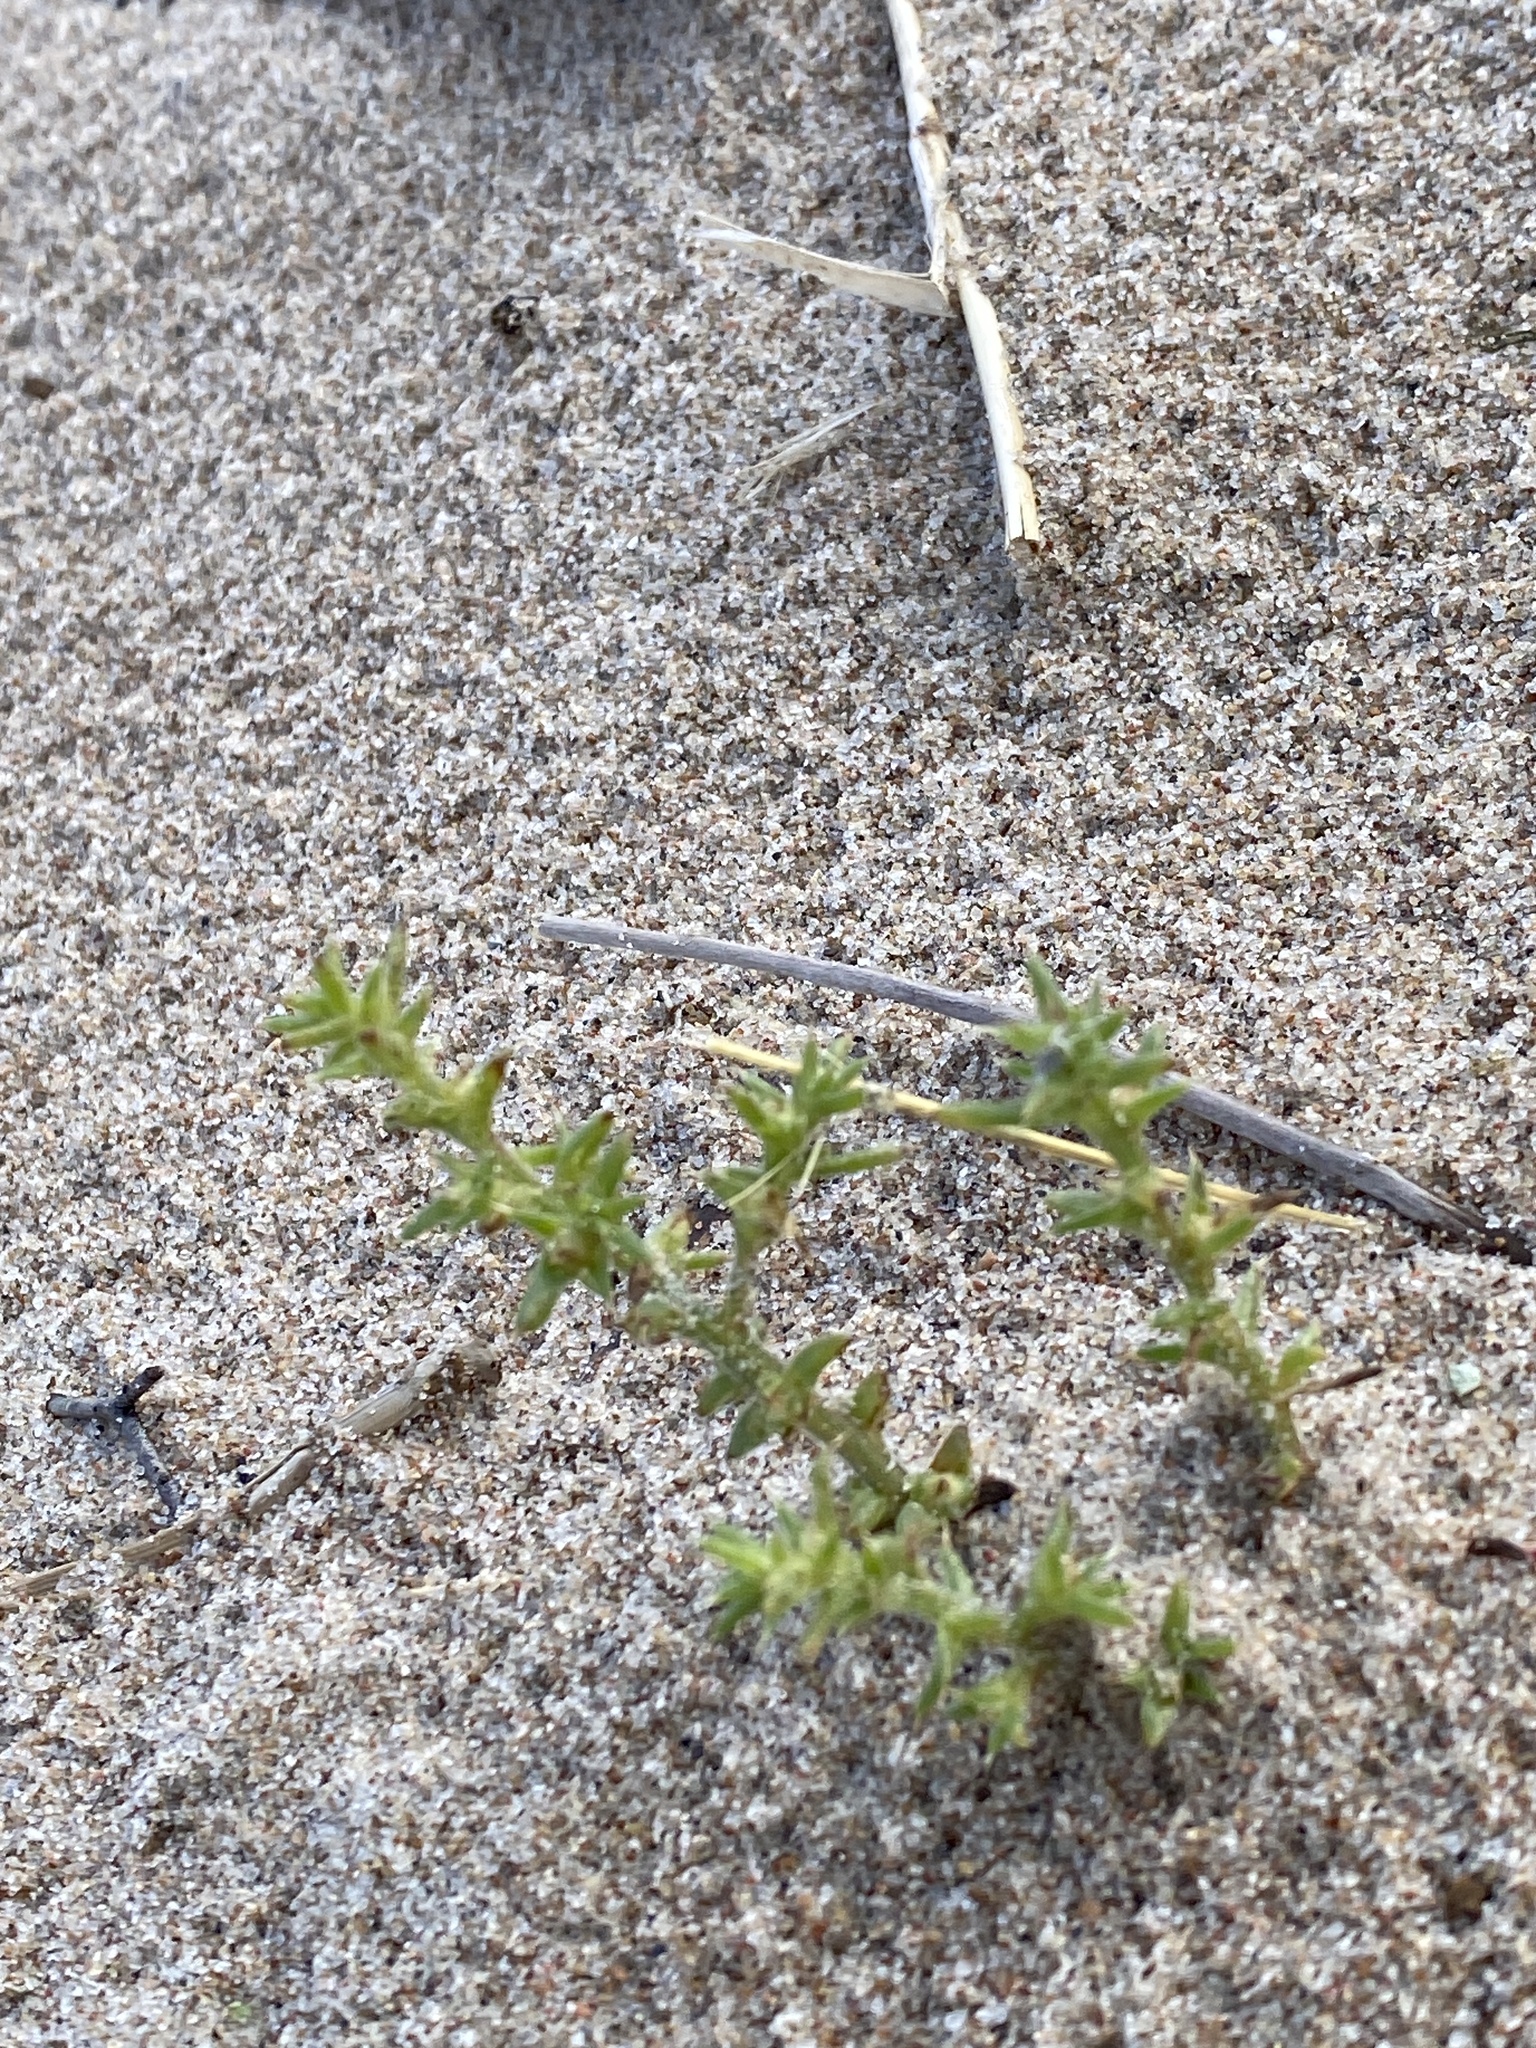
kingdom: Plantae
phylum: Tracheophyta
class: Magnoliopsida
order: Caryophyllales
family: Amaranthaceae
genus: Salsola
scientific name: Salsola kali
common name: Saltwort
